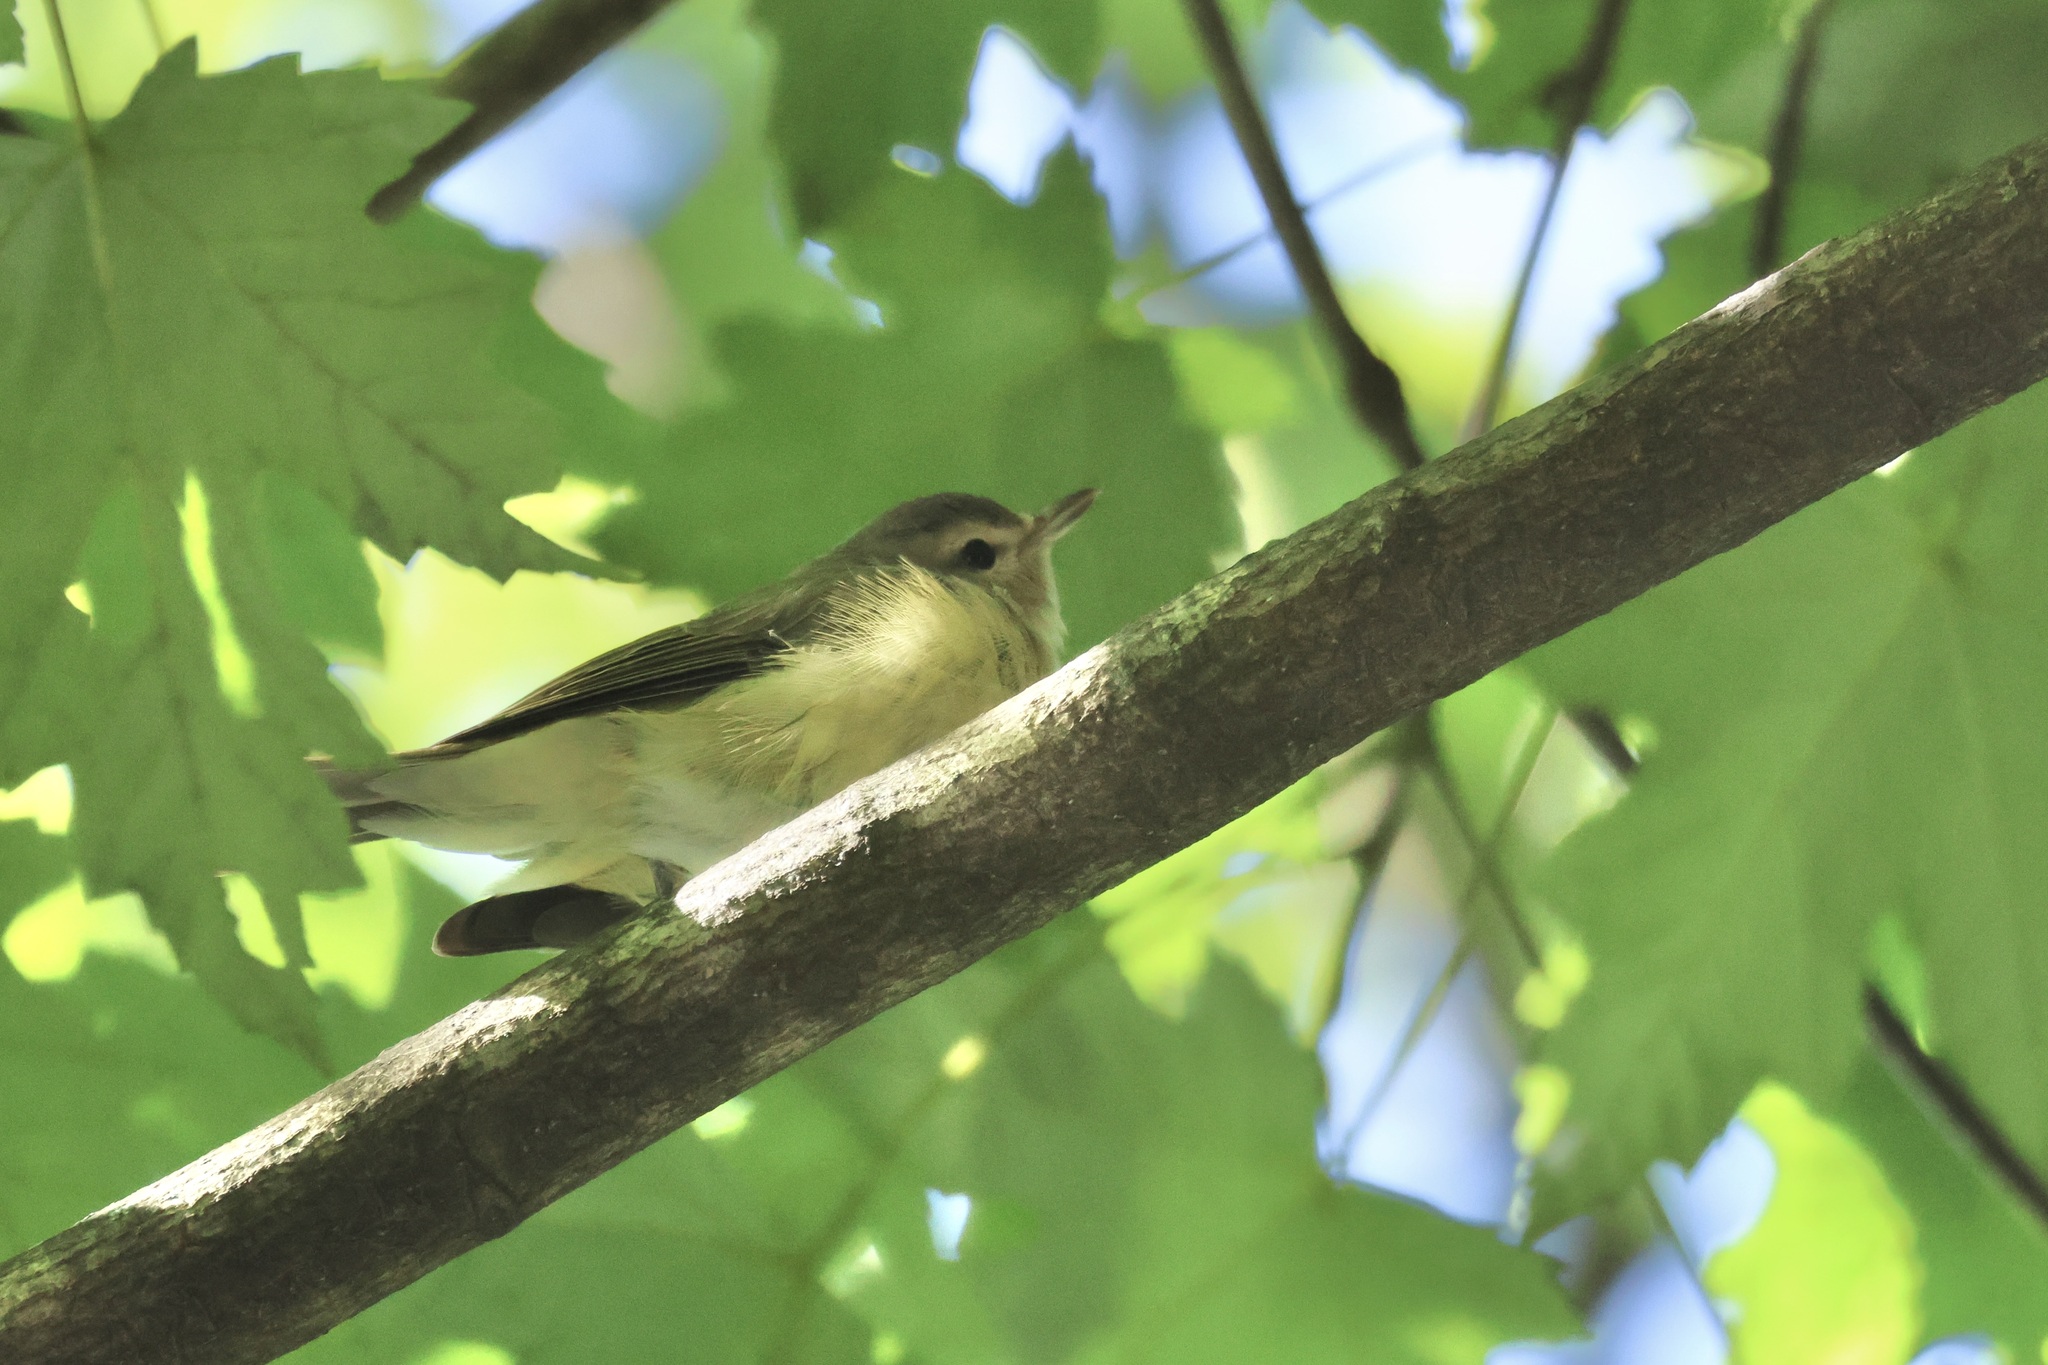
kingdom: Animalia
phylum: Chordata
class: Aves
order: Passeriformes
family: Vireonidae
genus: Vireo
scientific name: Vireo gilvus
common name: Warbling vireo
